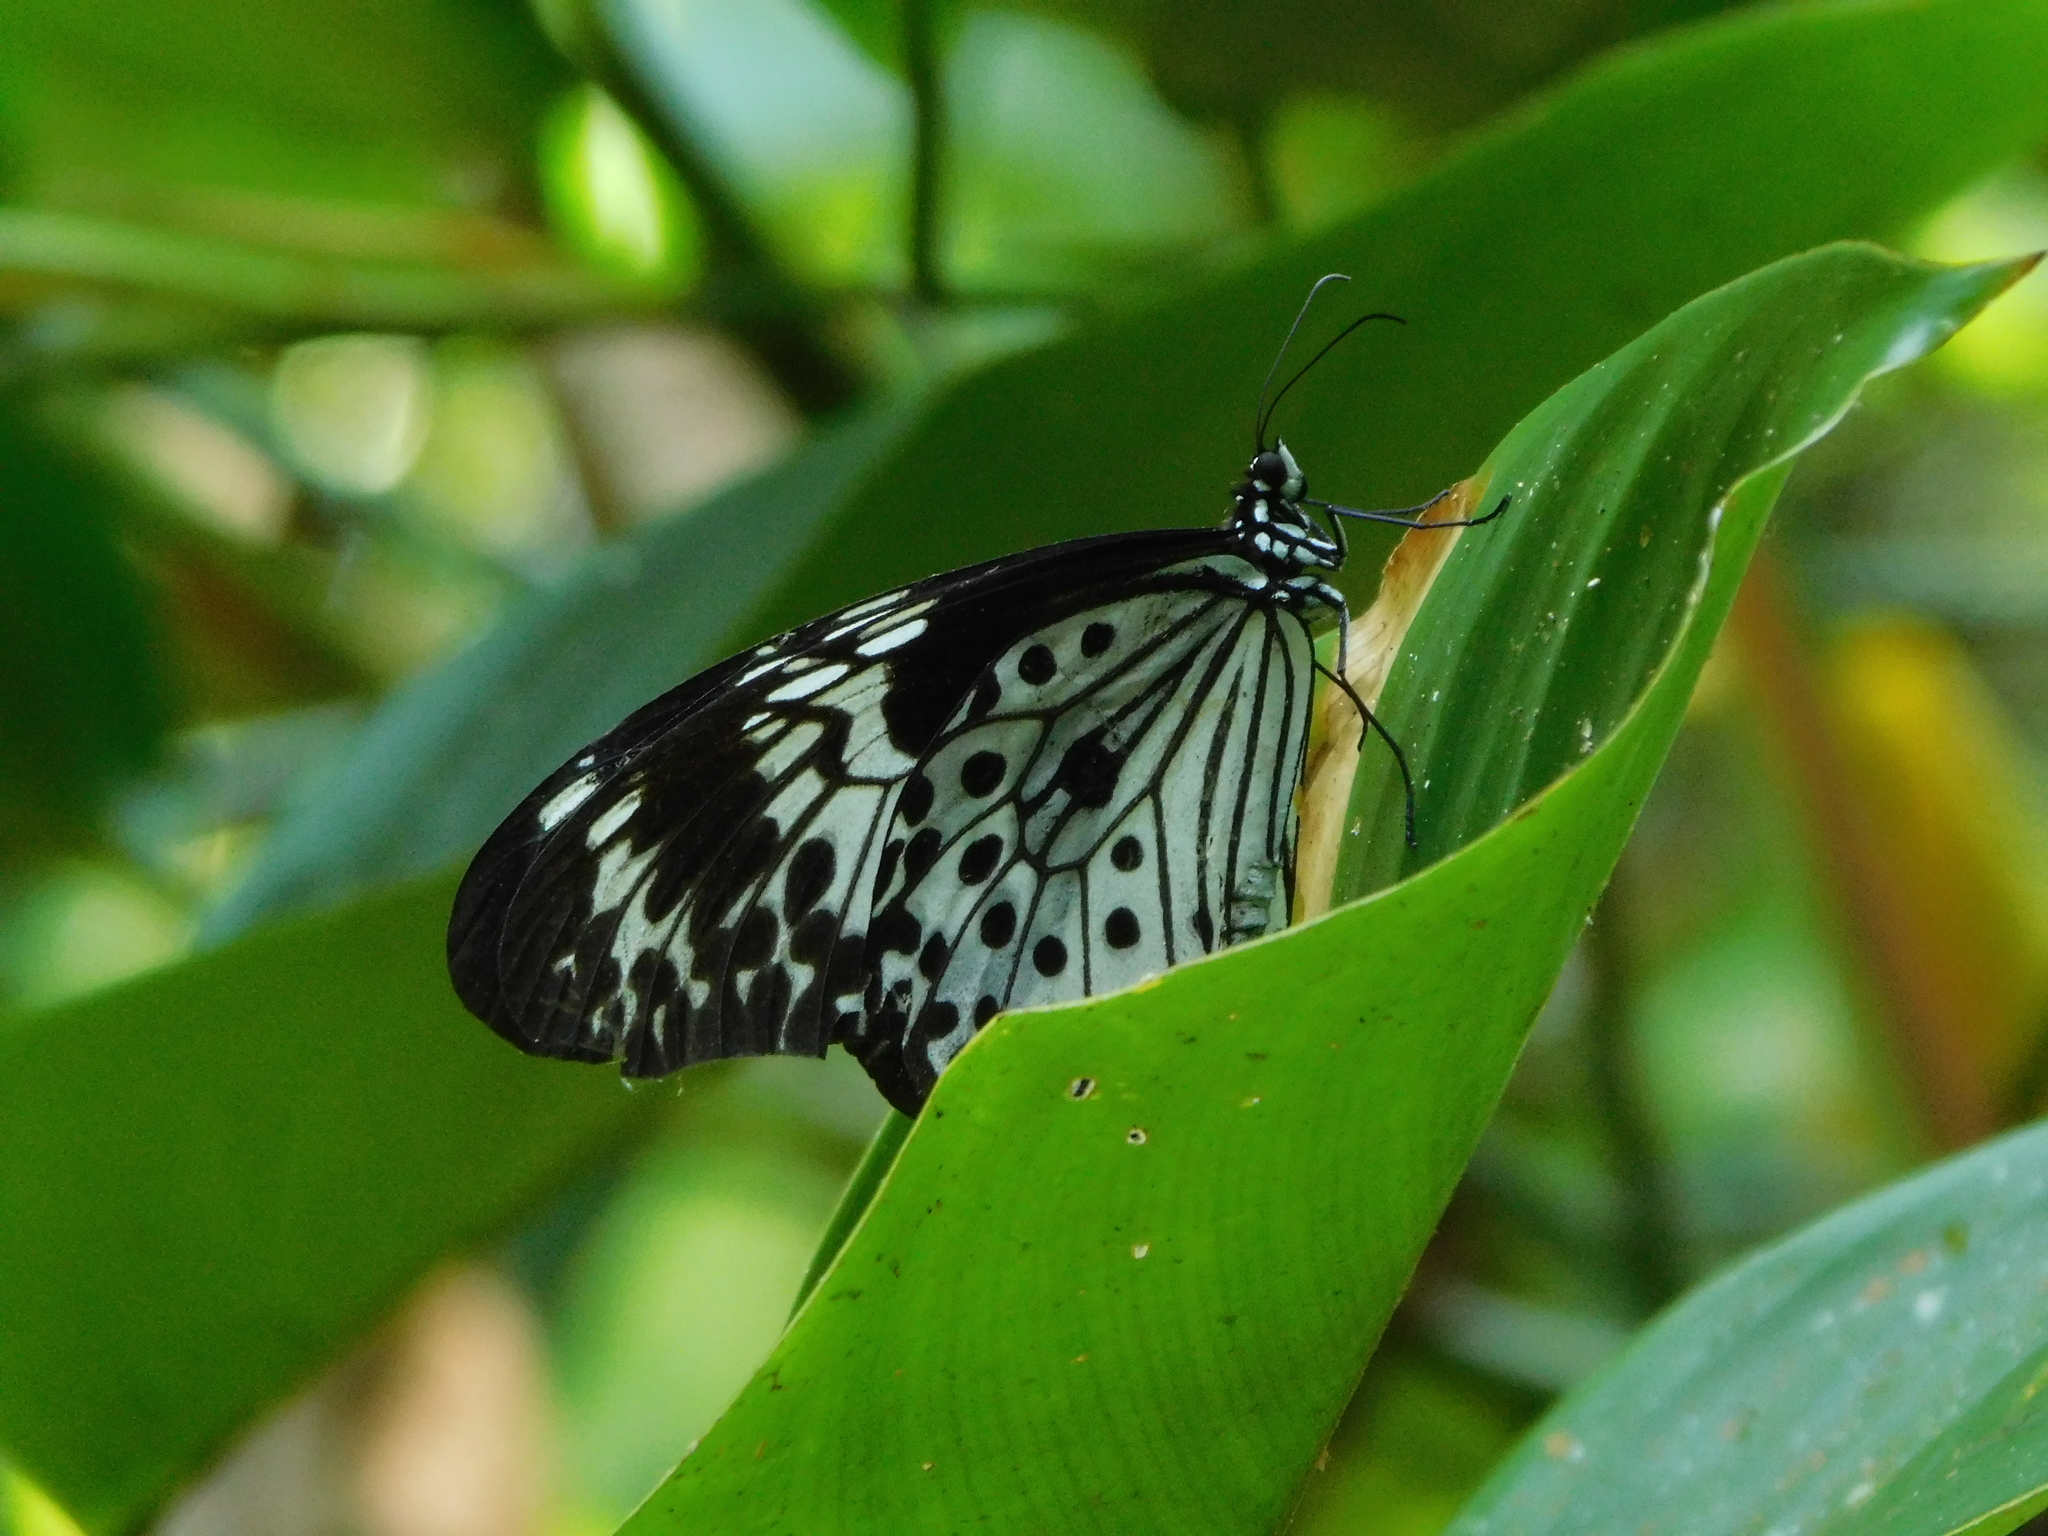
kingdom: Animalia
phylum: Arthropoda
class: Insecta
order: Lepidoptera
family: Nymphalidae
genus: Idea
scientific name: Idea agamarschana
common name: Andaman tree nymph
